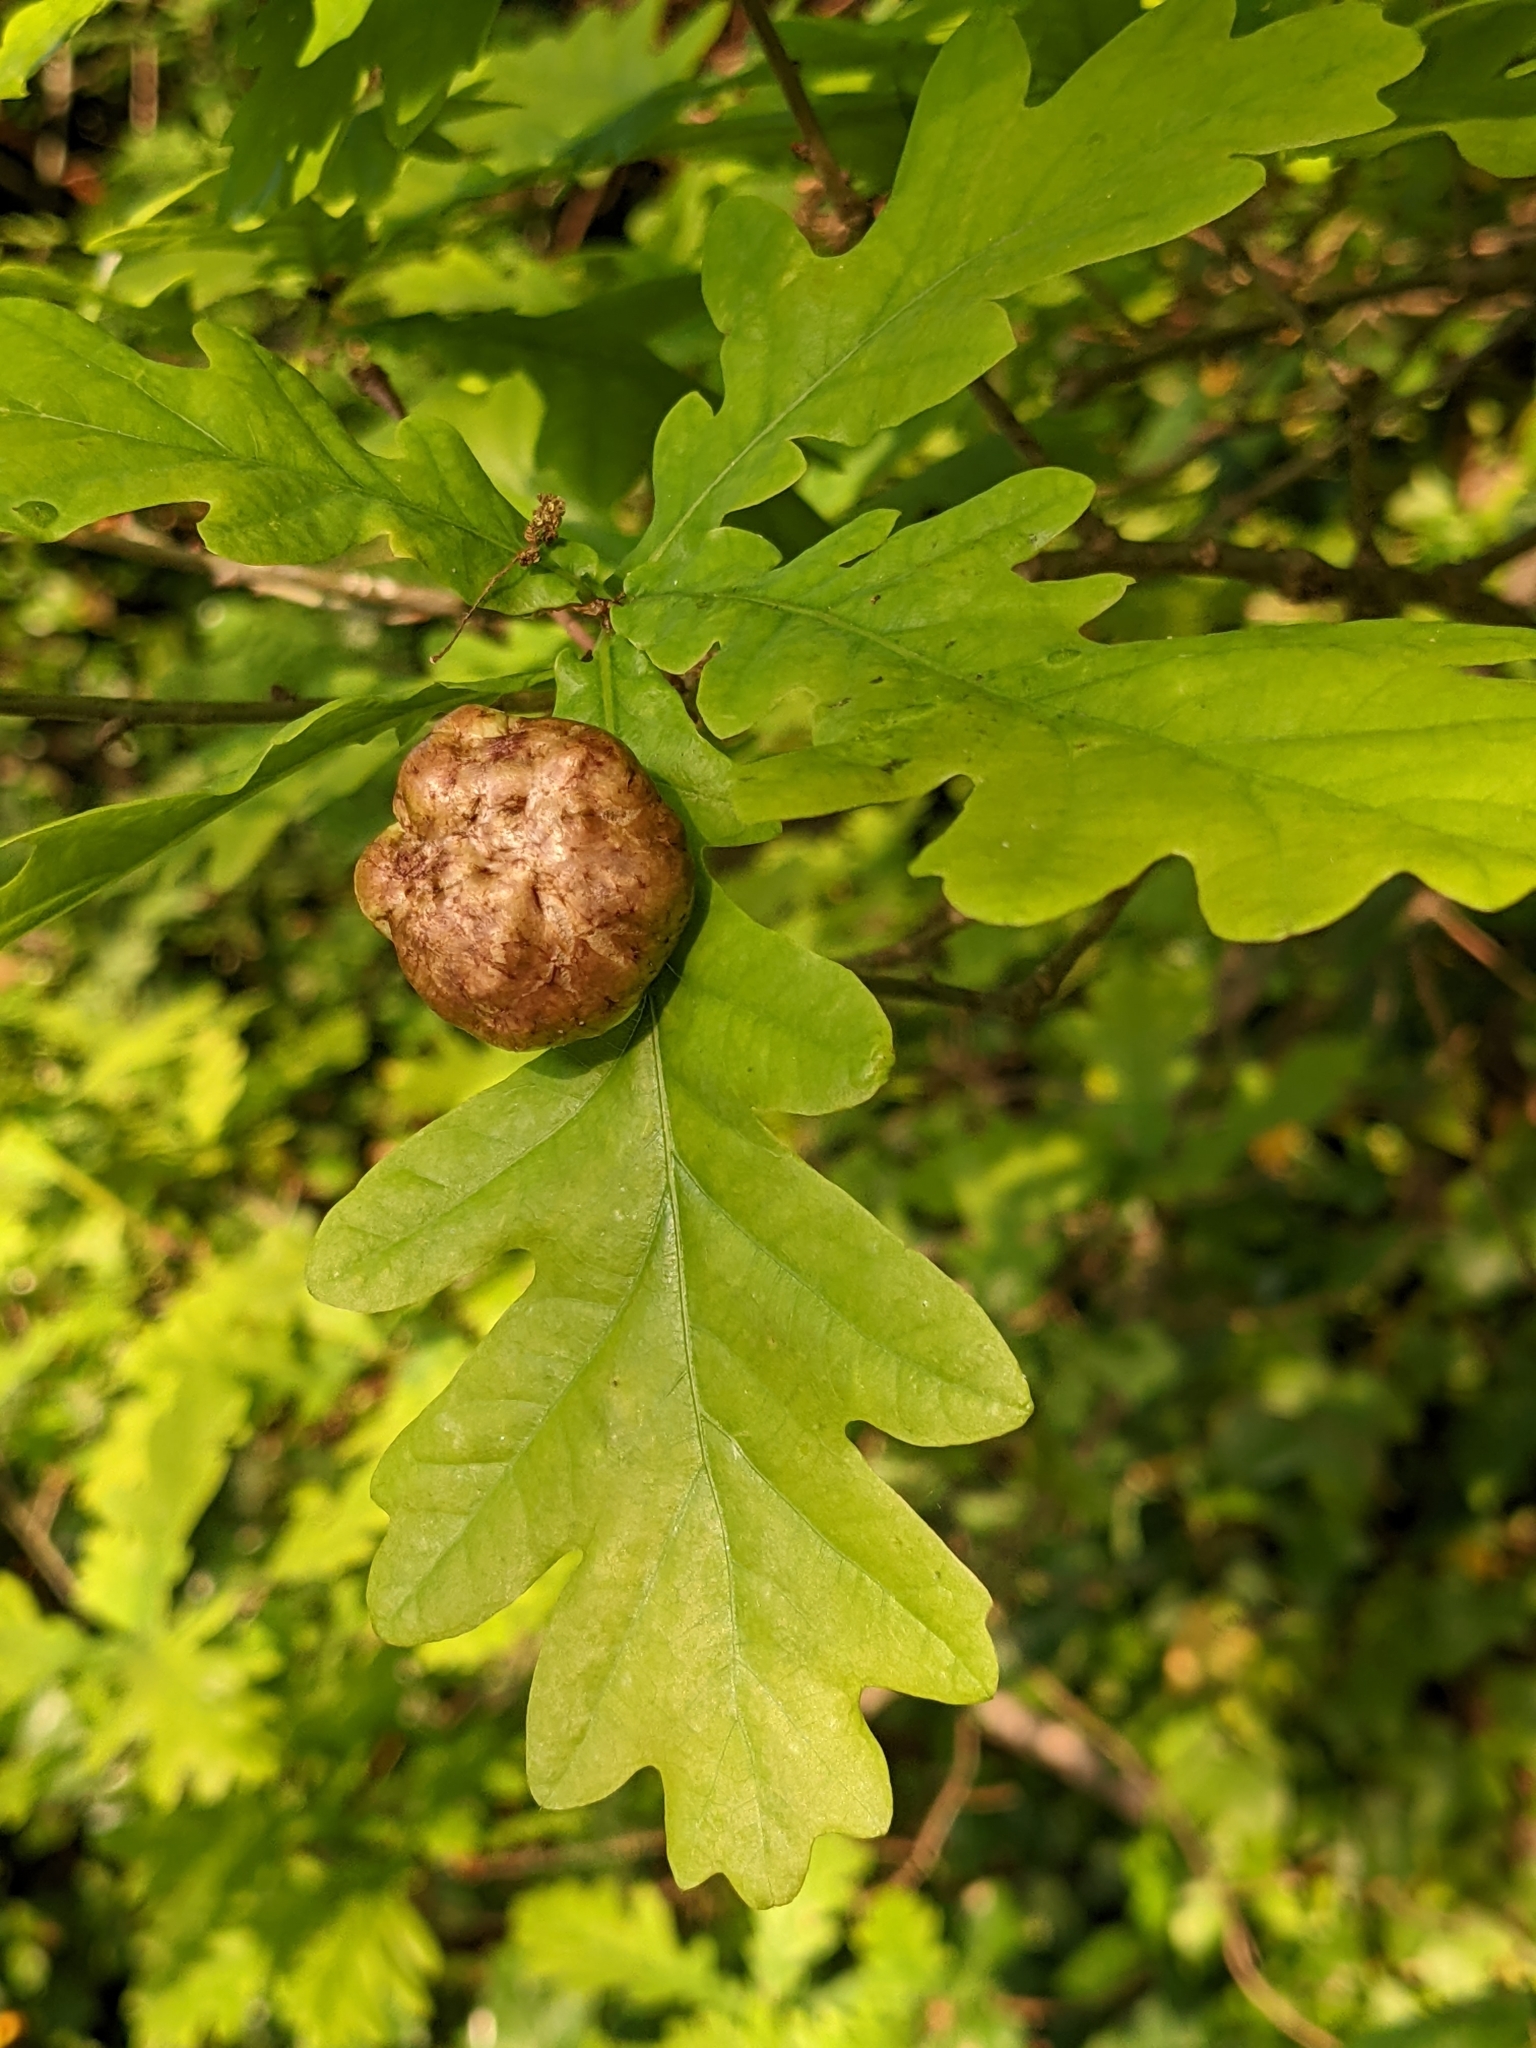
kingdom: Animalia
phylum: Arthropoda
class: Insecta
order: Hymenoptera
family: Cynipidae
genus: Biorhiza
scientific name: Biorhiza pallida
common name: Oak apple
